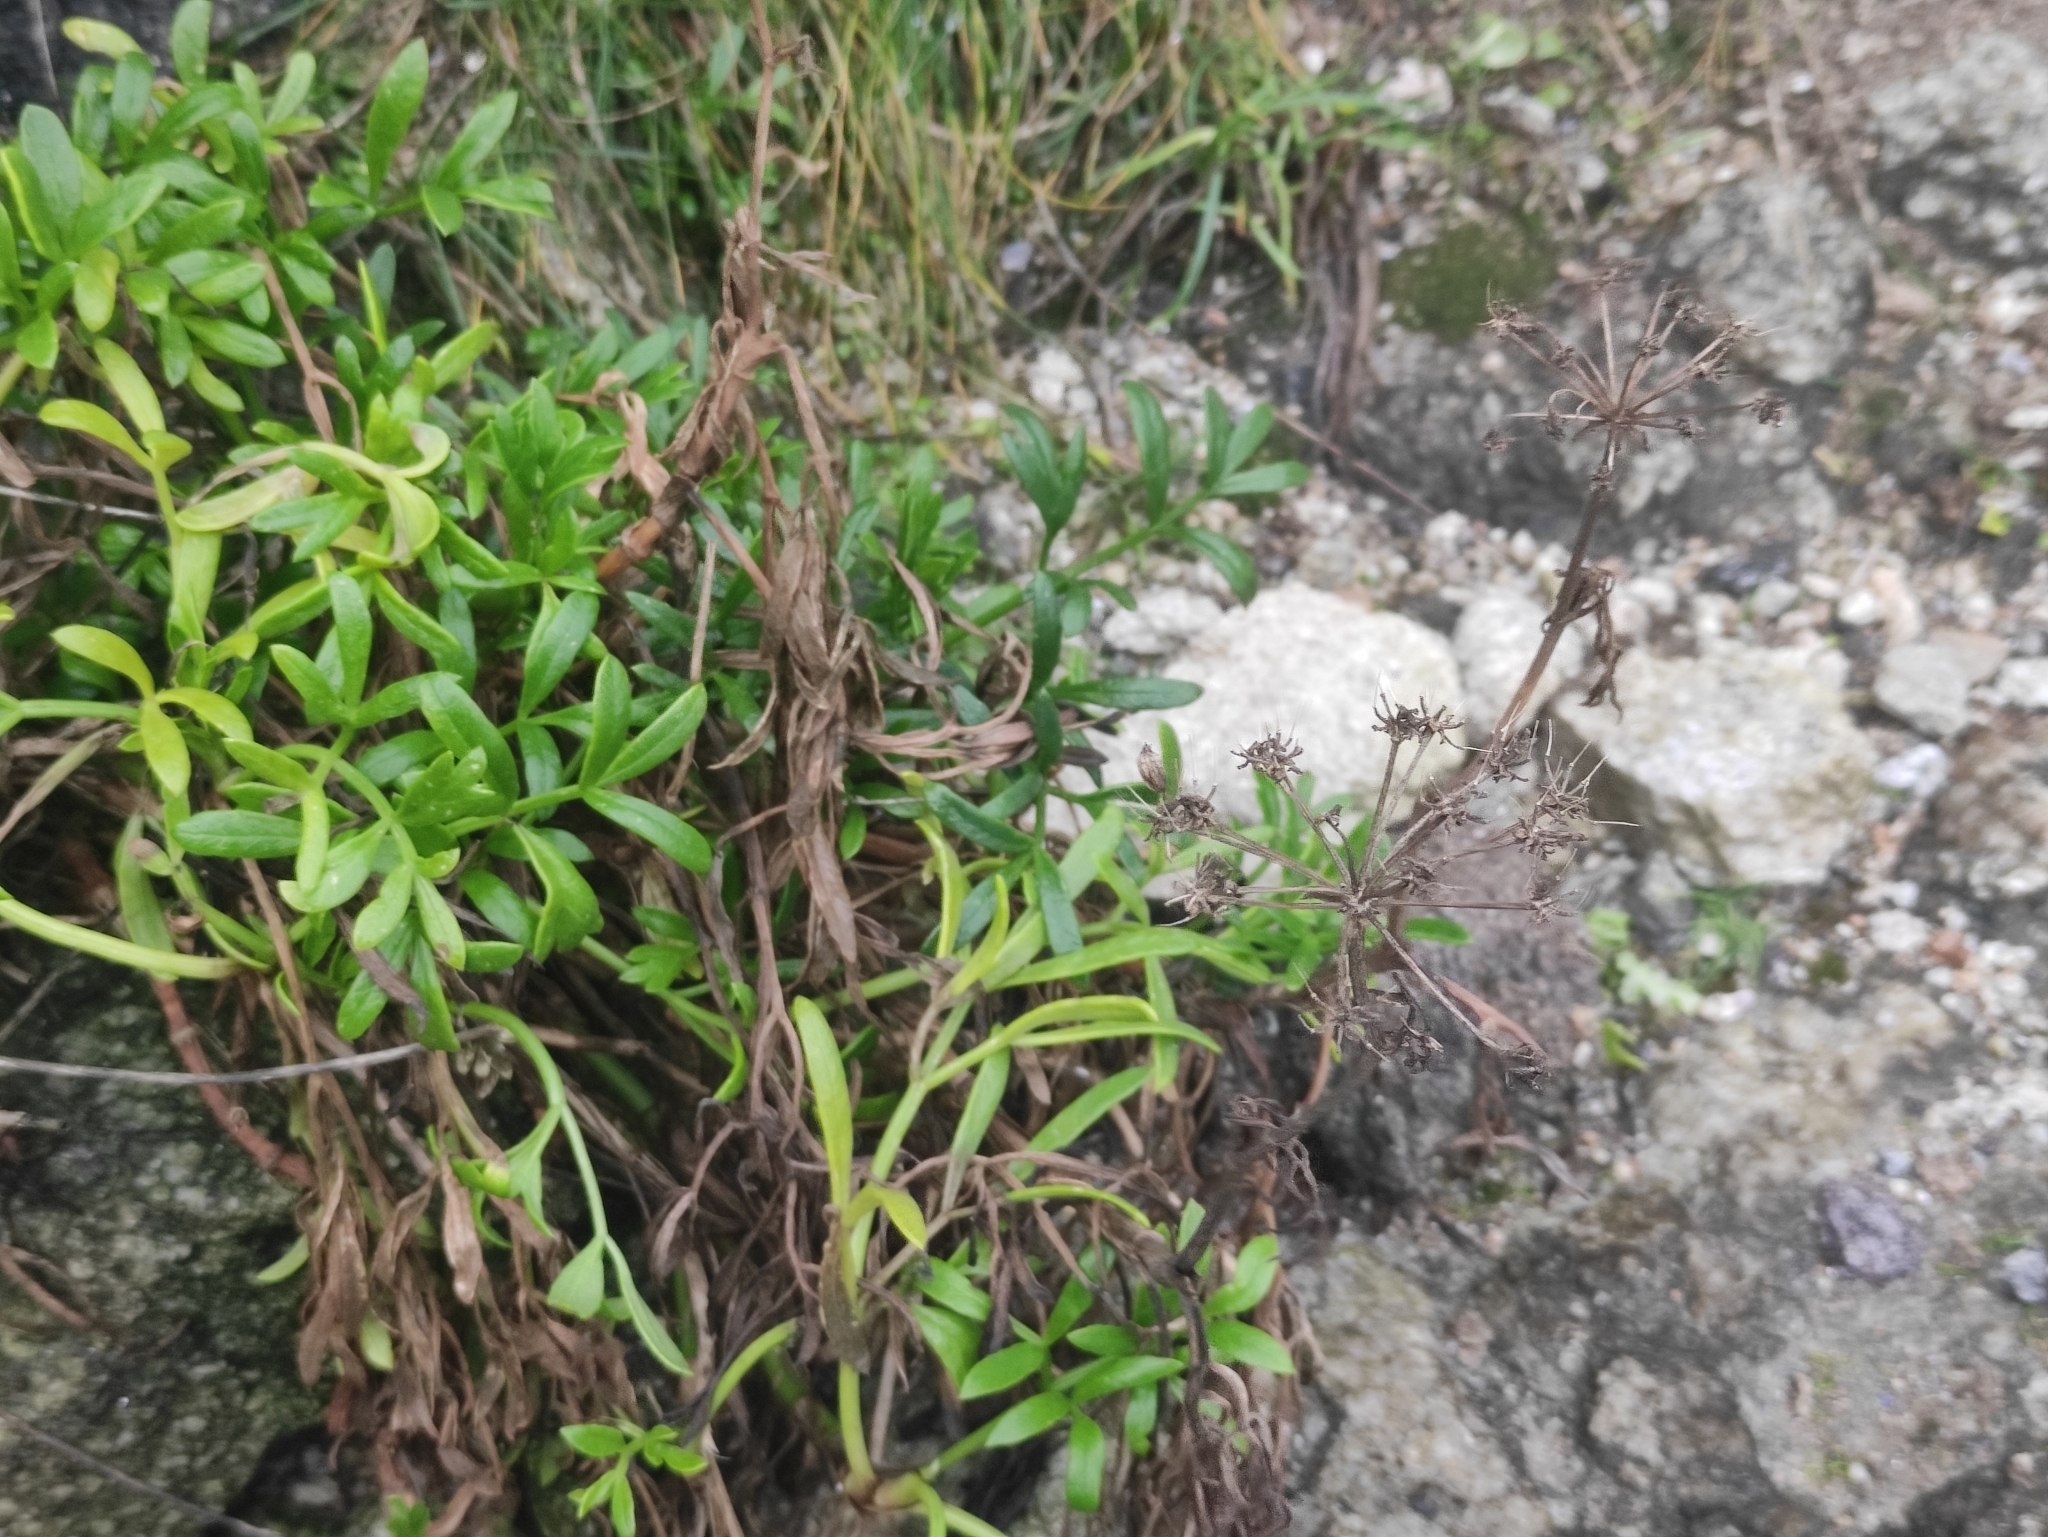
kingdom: Plantae
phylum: Tracheophyta
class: Magnoliopsida
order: Apiales
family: Apiaceae
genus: Crithmum
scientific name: Crithmum maritimum
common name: Rock samphire
